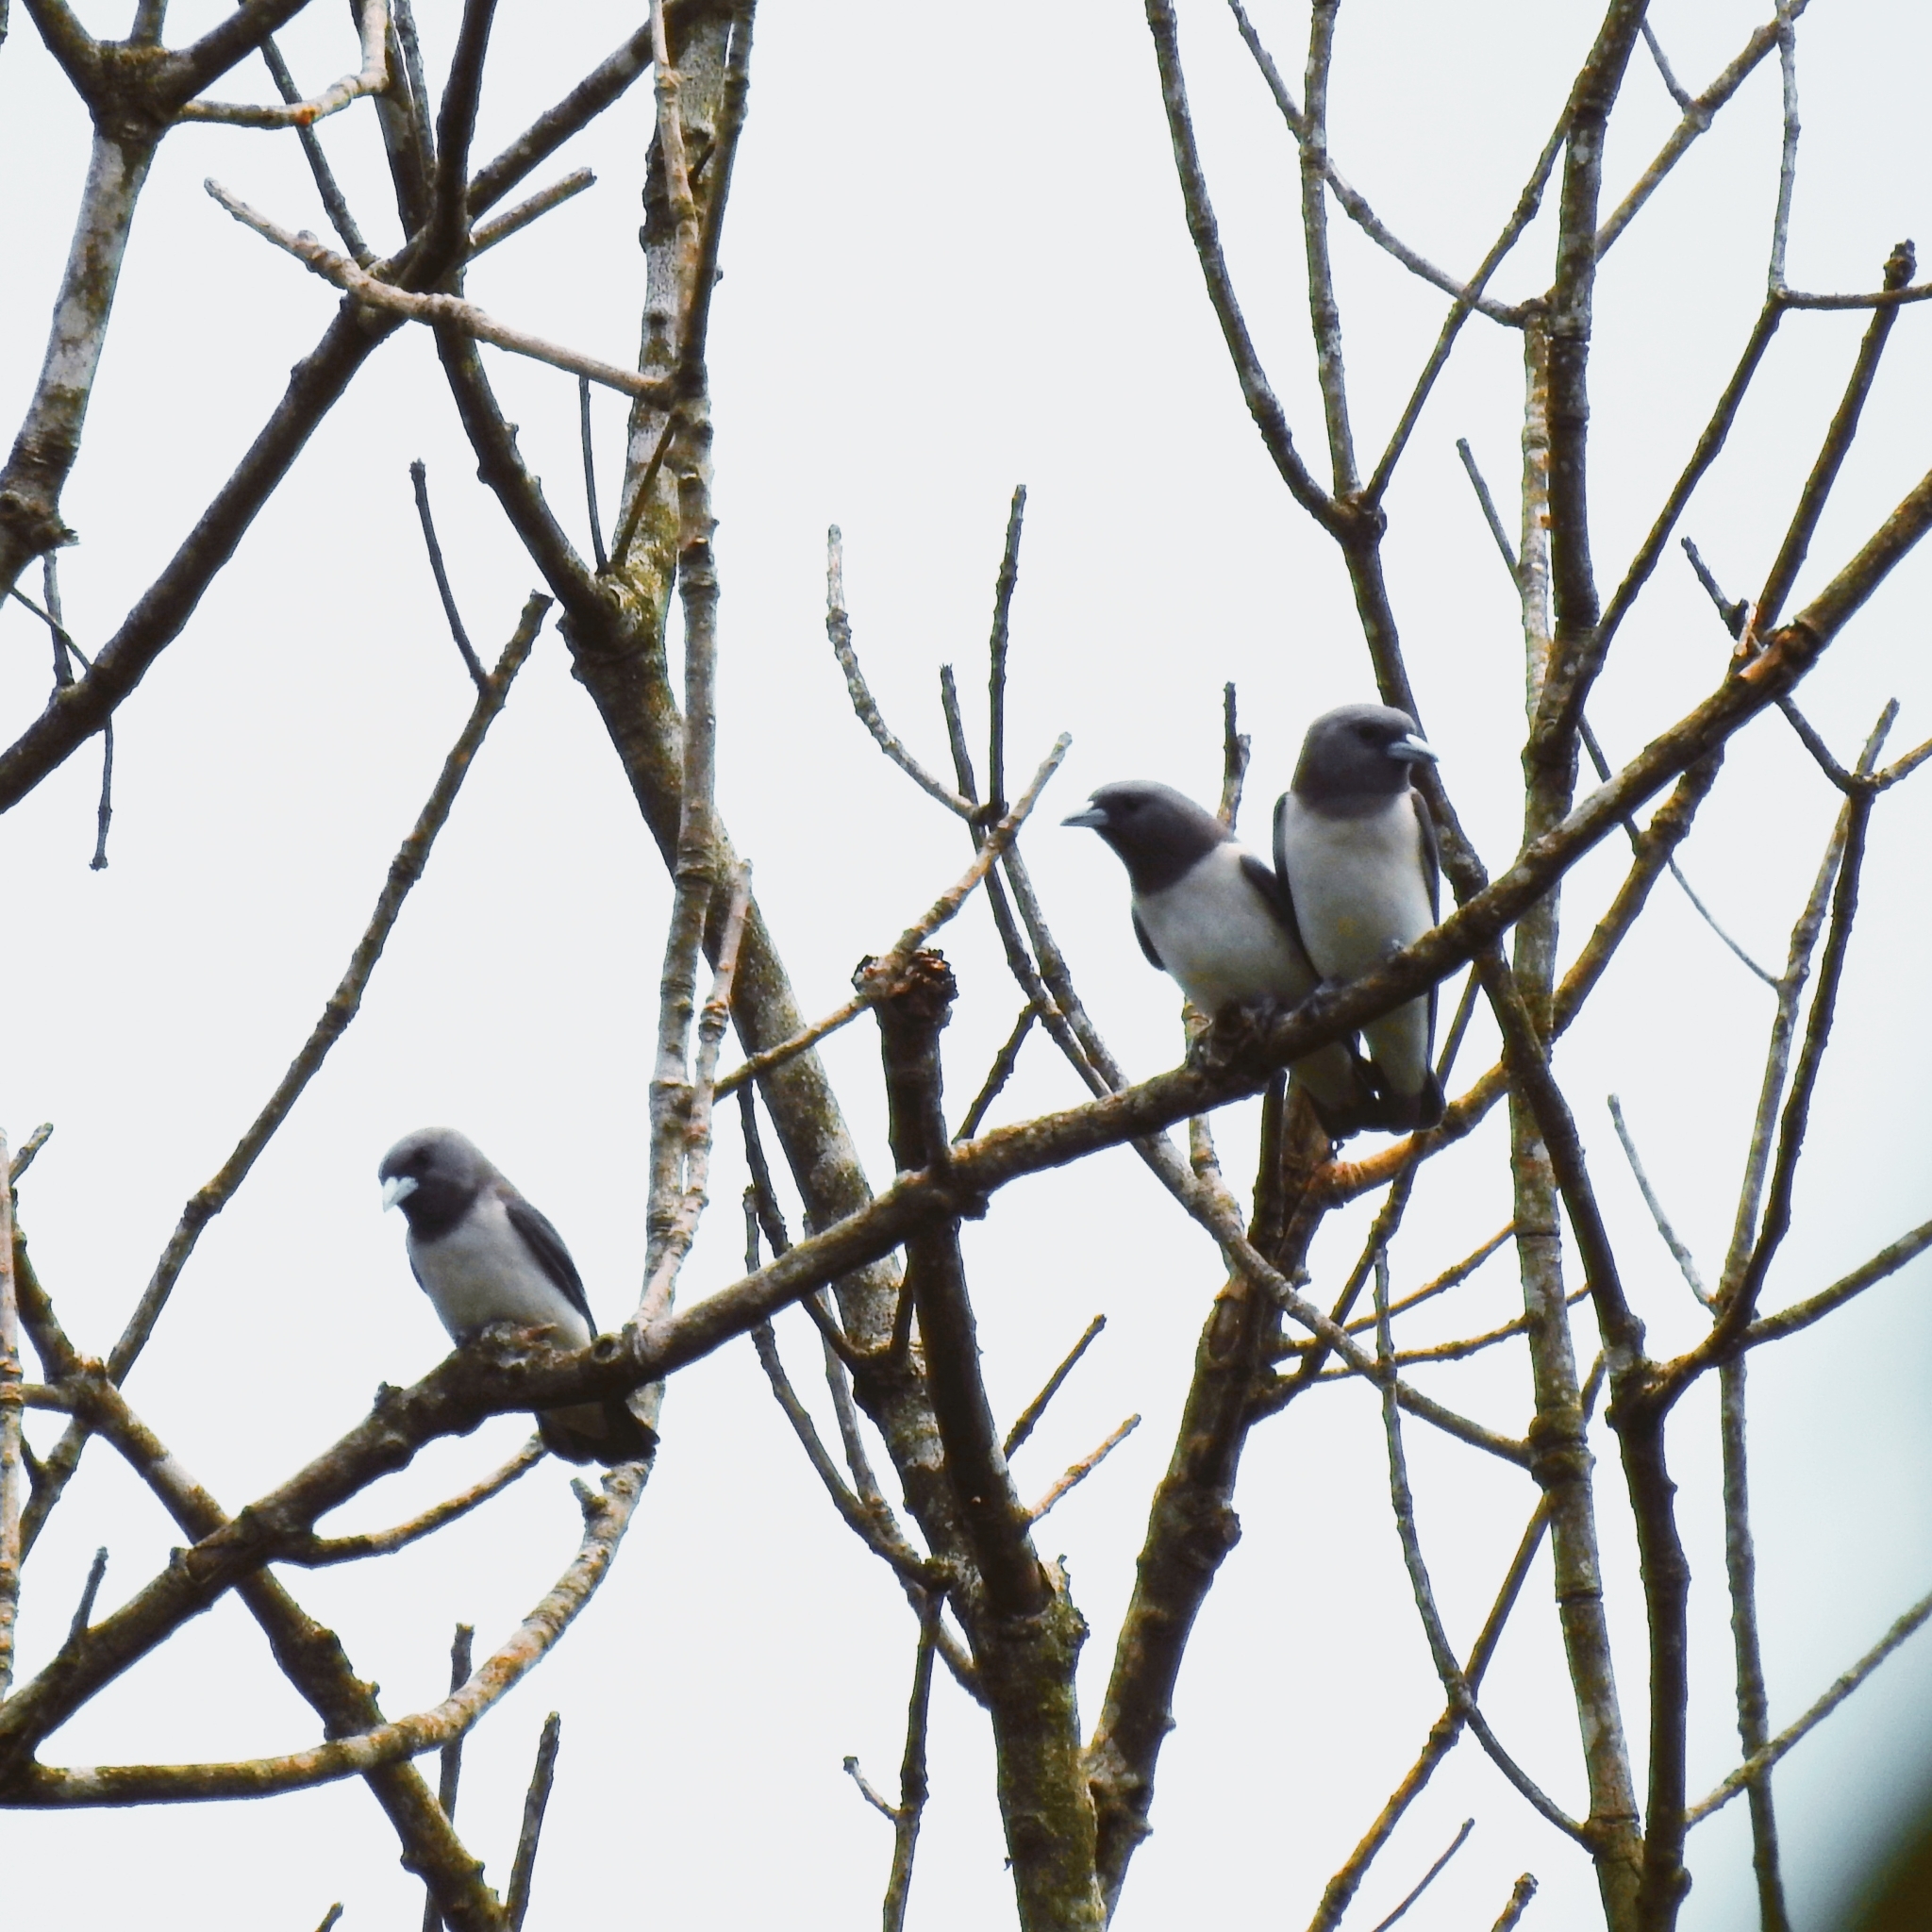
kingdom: Animalia
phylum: Chordata
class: Aves
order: Passeriformes
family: Artamidae
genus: Artamus
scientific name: Artamus leucoryn
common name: White-breasted woodswallow
